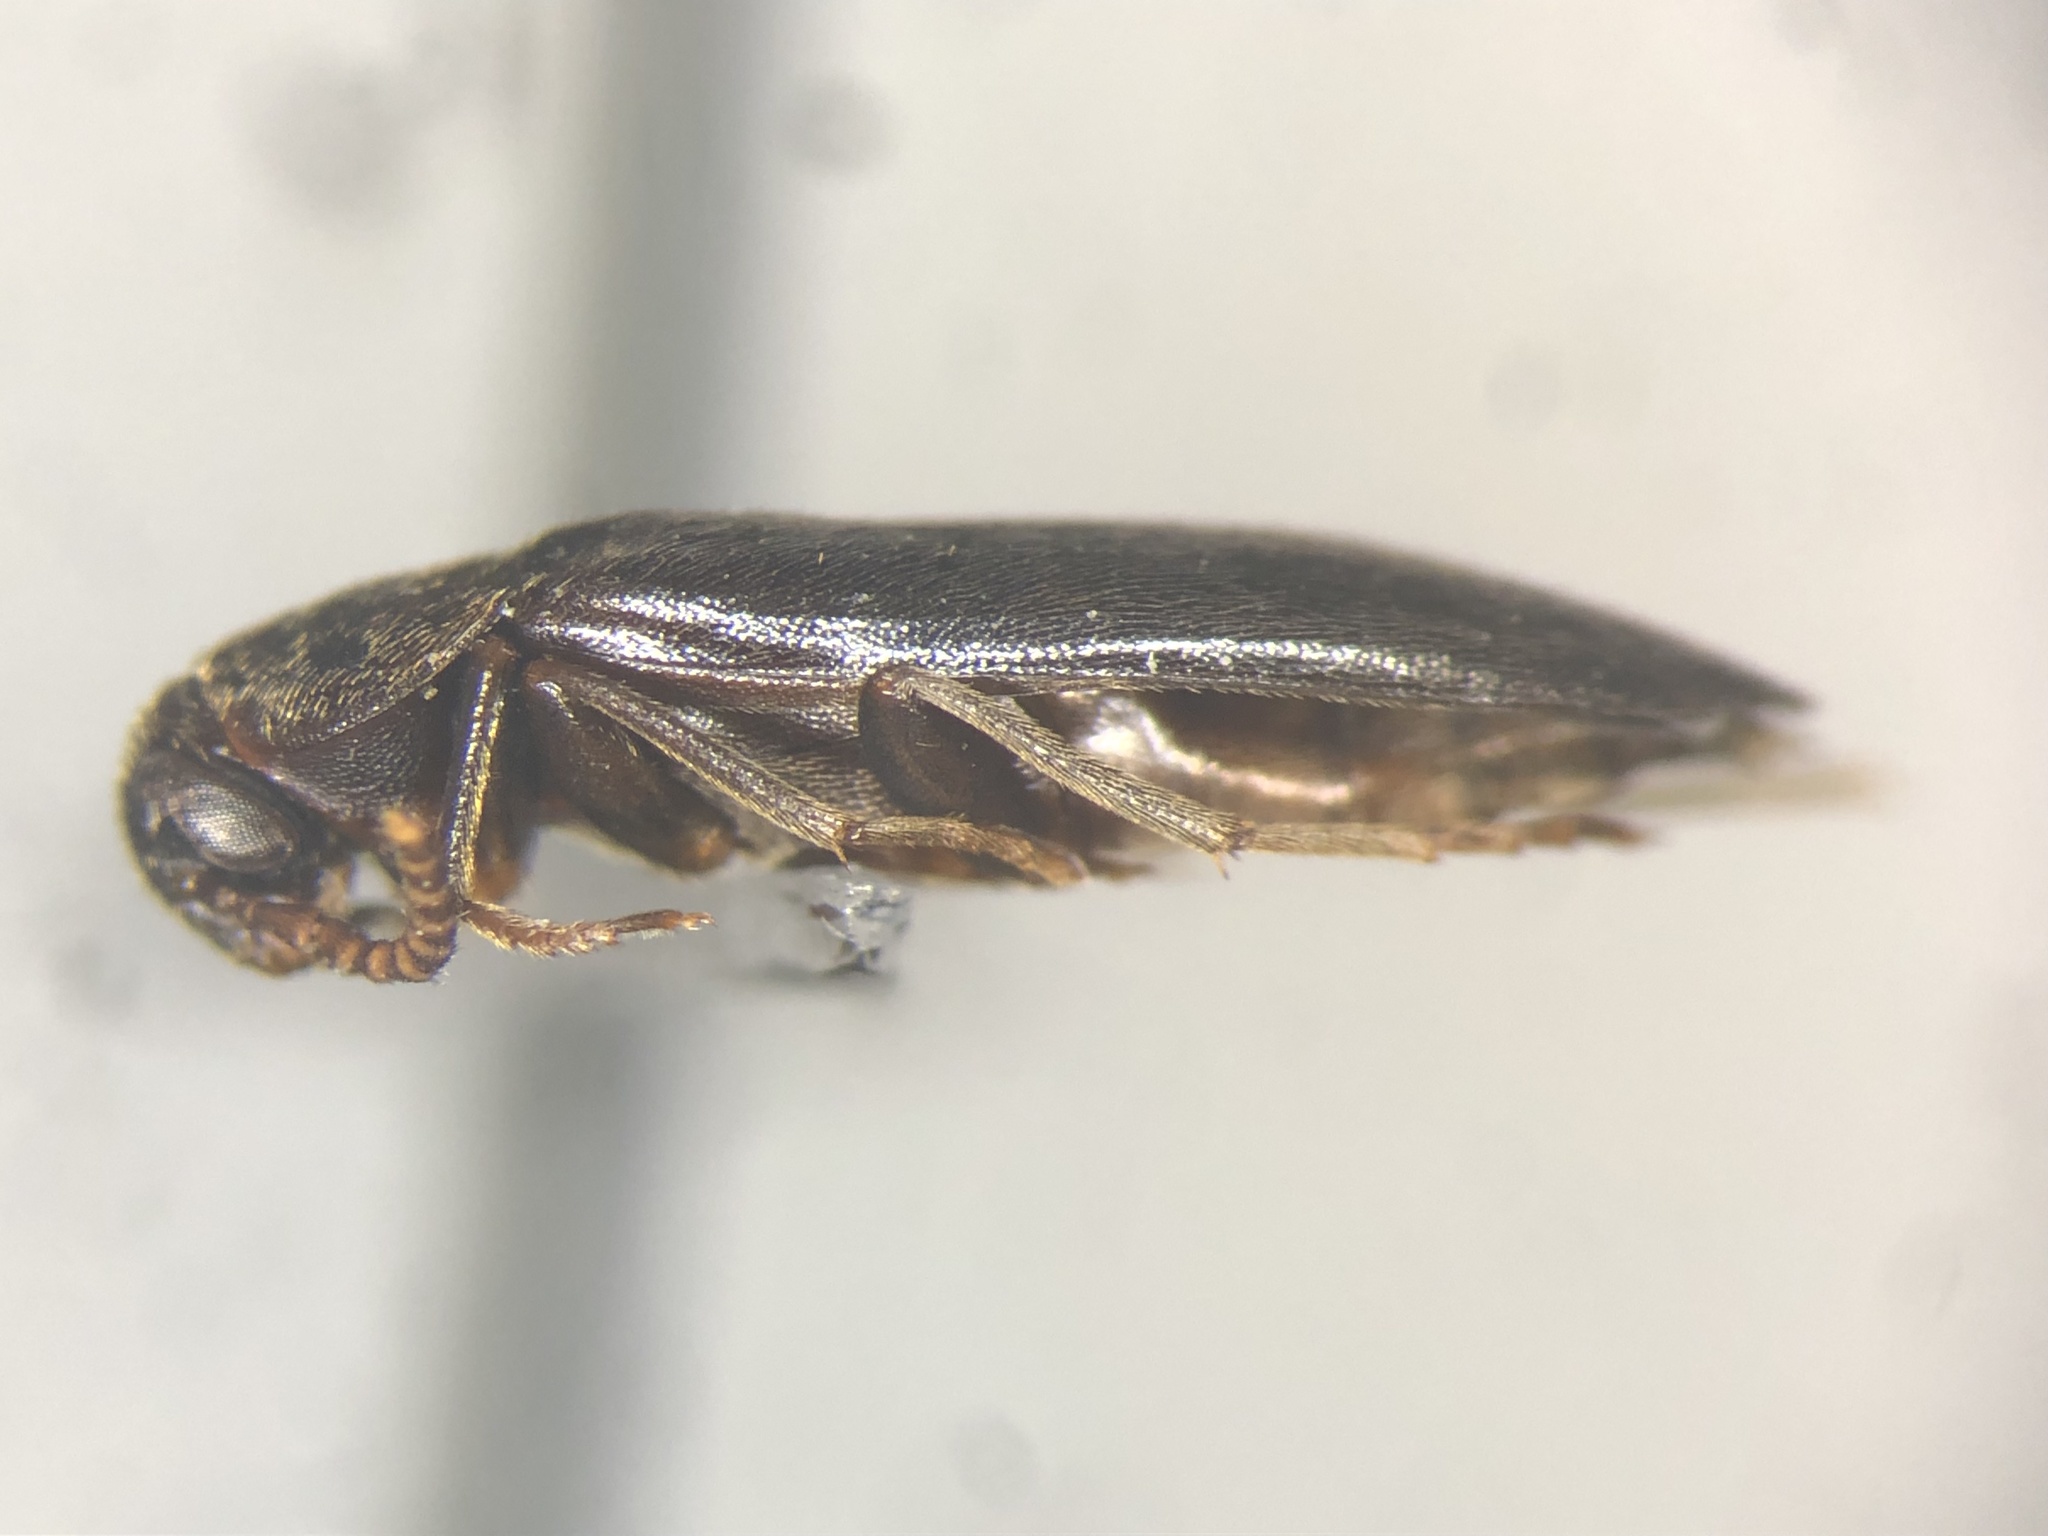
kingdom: Animalia
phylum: Arthropoda
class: Insecta
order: Coleoptera
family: Tetratomidae
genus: Hallomenus
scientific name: Hallomenus serricornis
